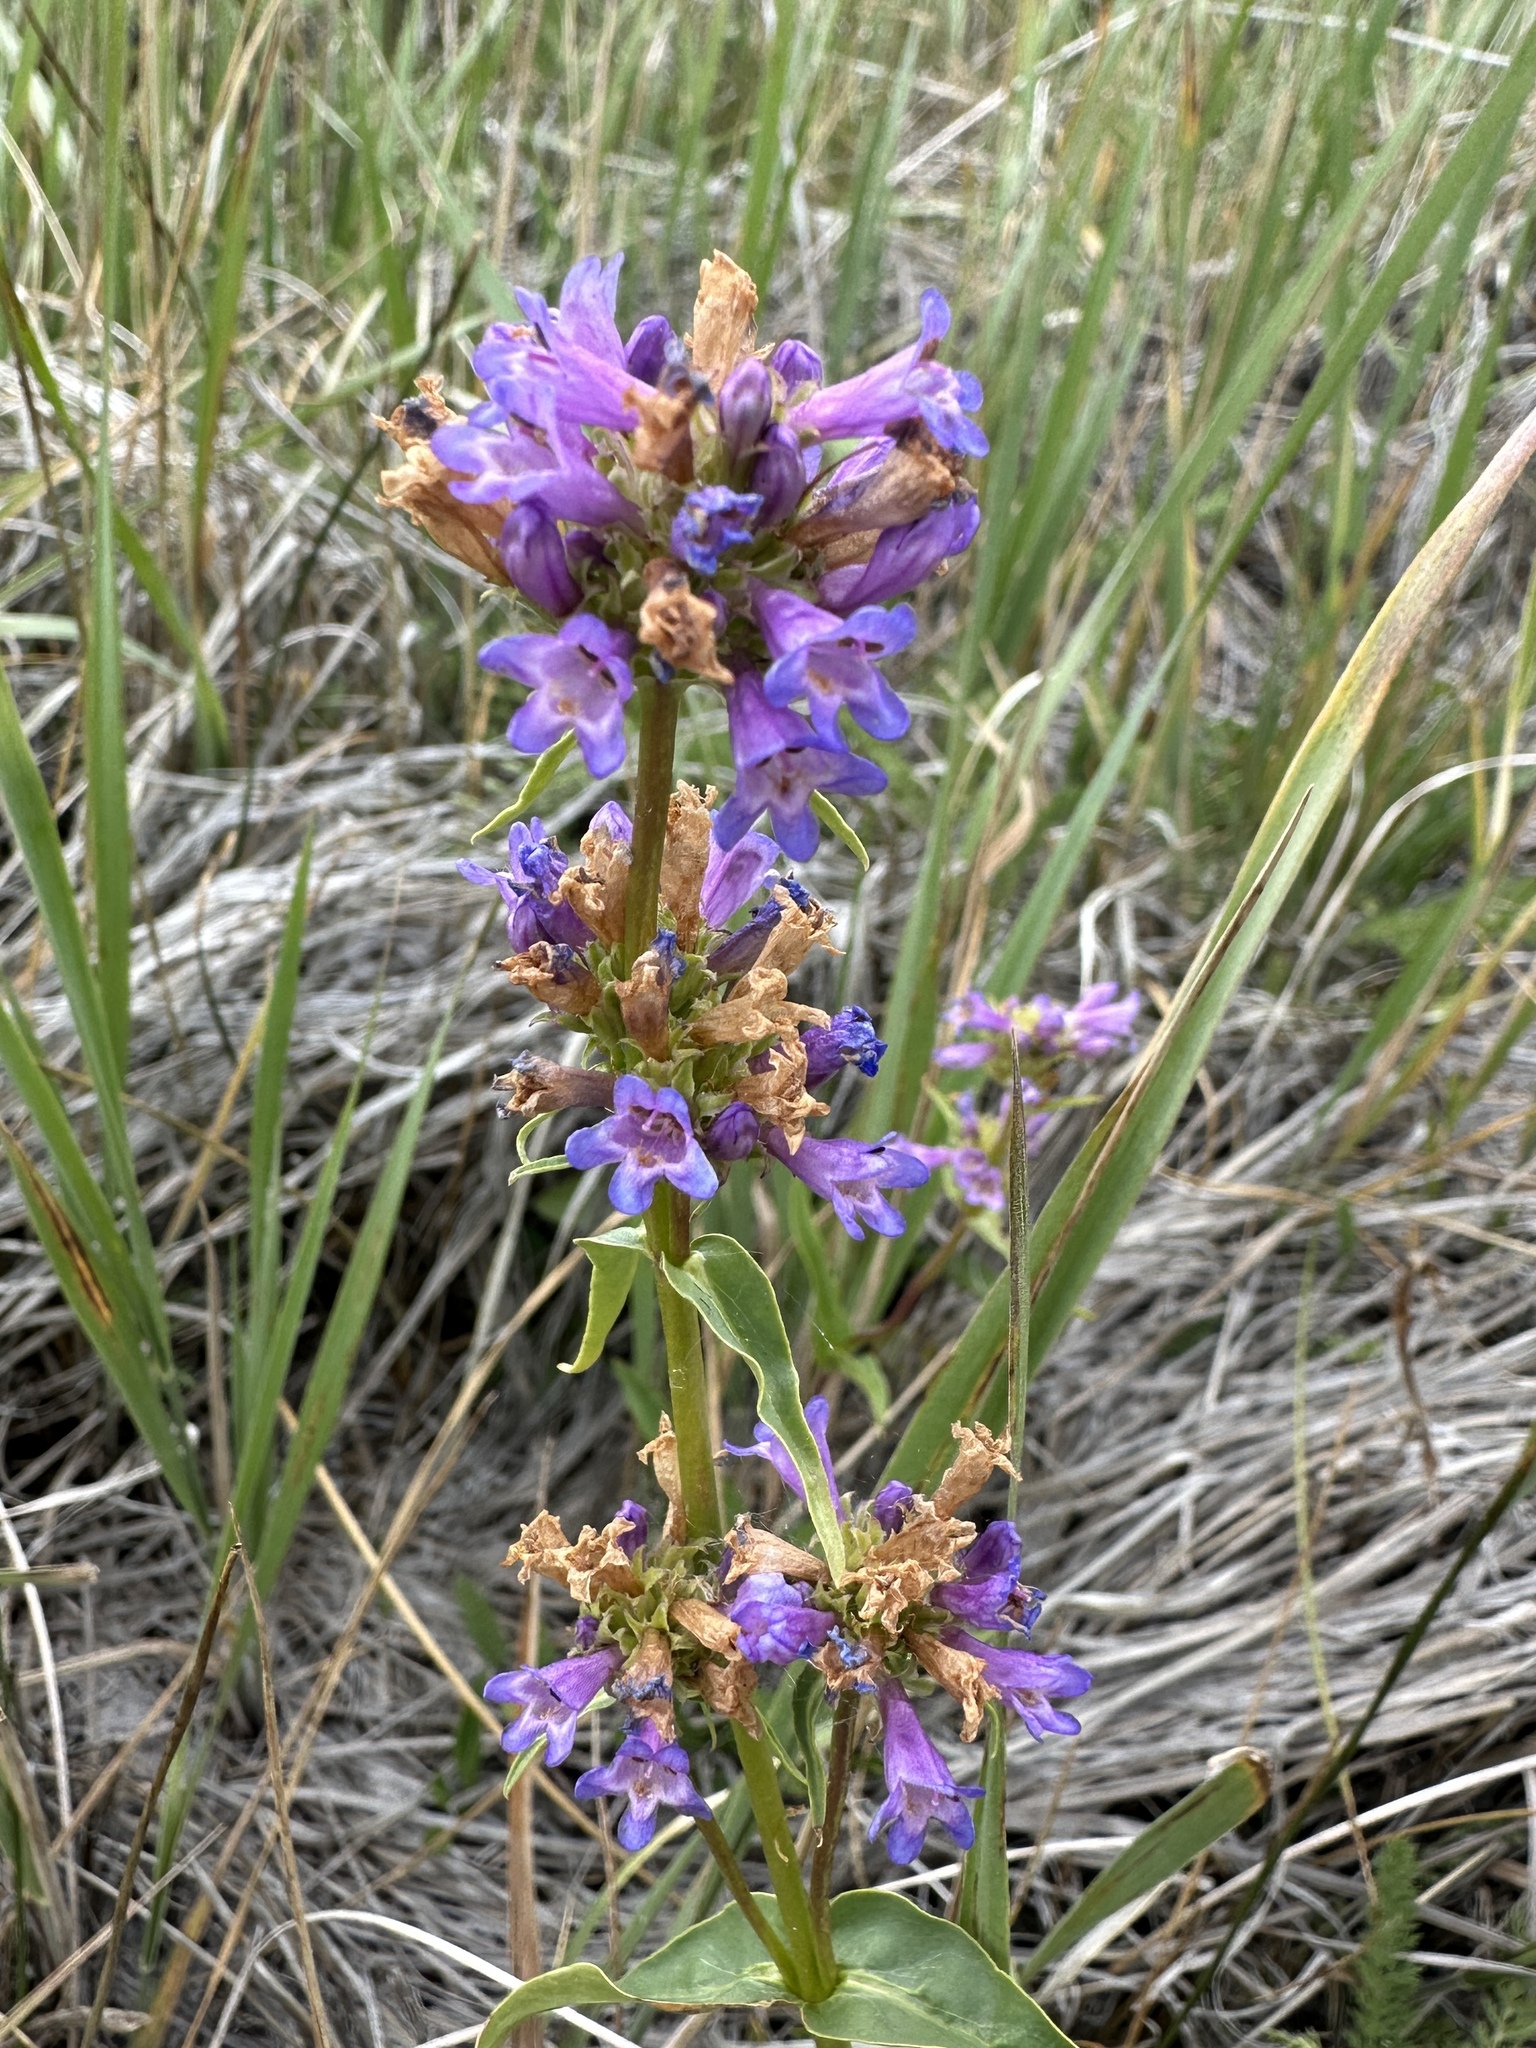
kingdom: Plantae
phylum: Tracheophyta
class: Magnoliopsida
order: Lamiales
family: Plantaginaceae
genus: Penstemon
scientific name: Penstemon rydbergii
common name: Rydberg's beardtongue
